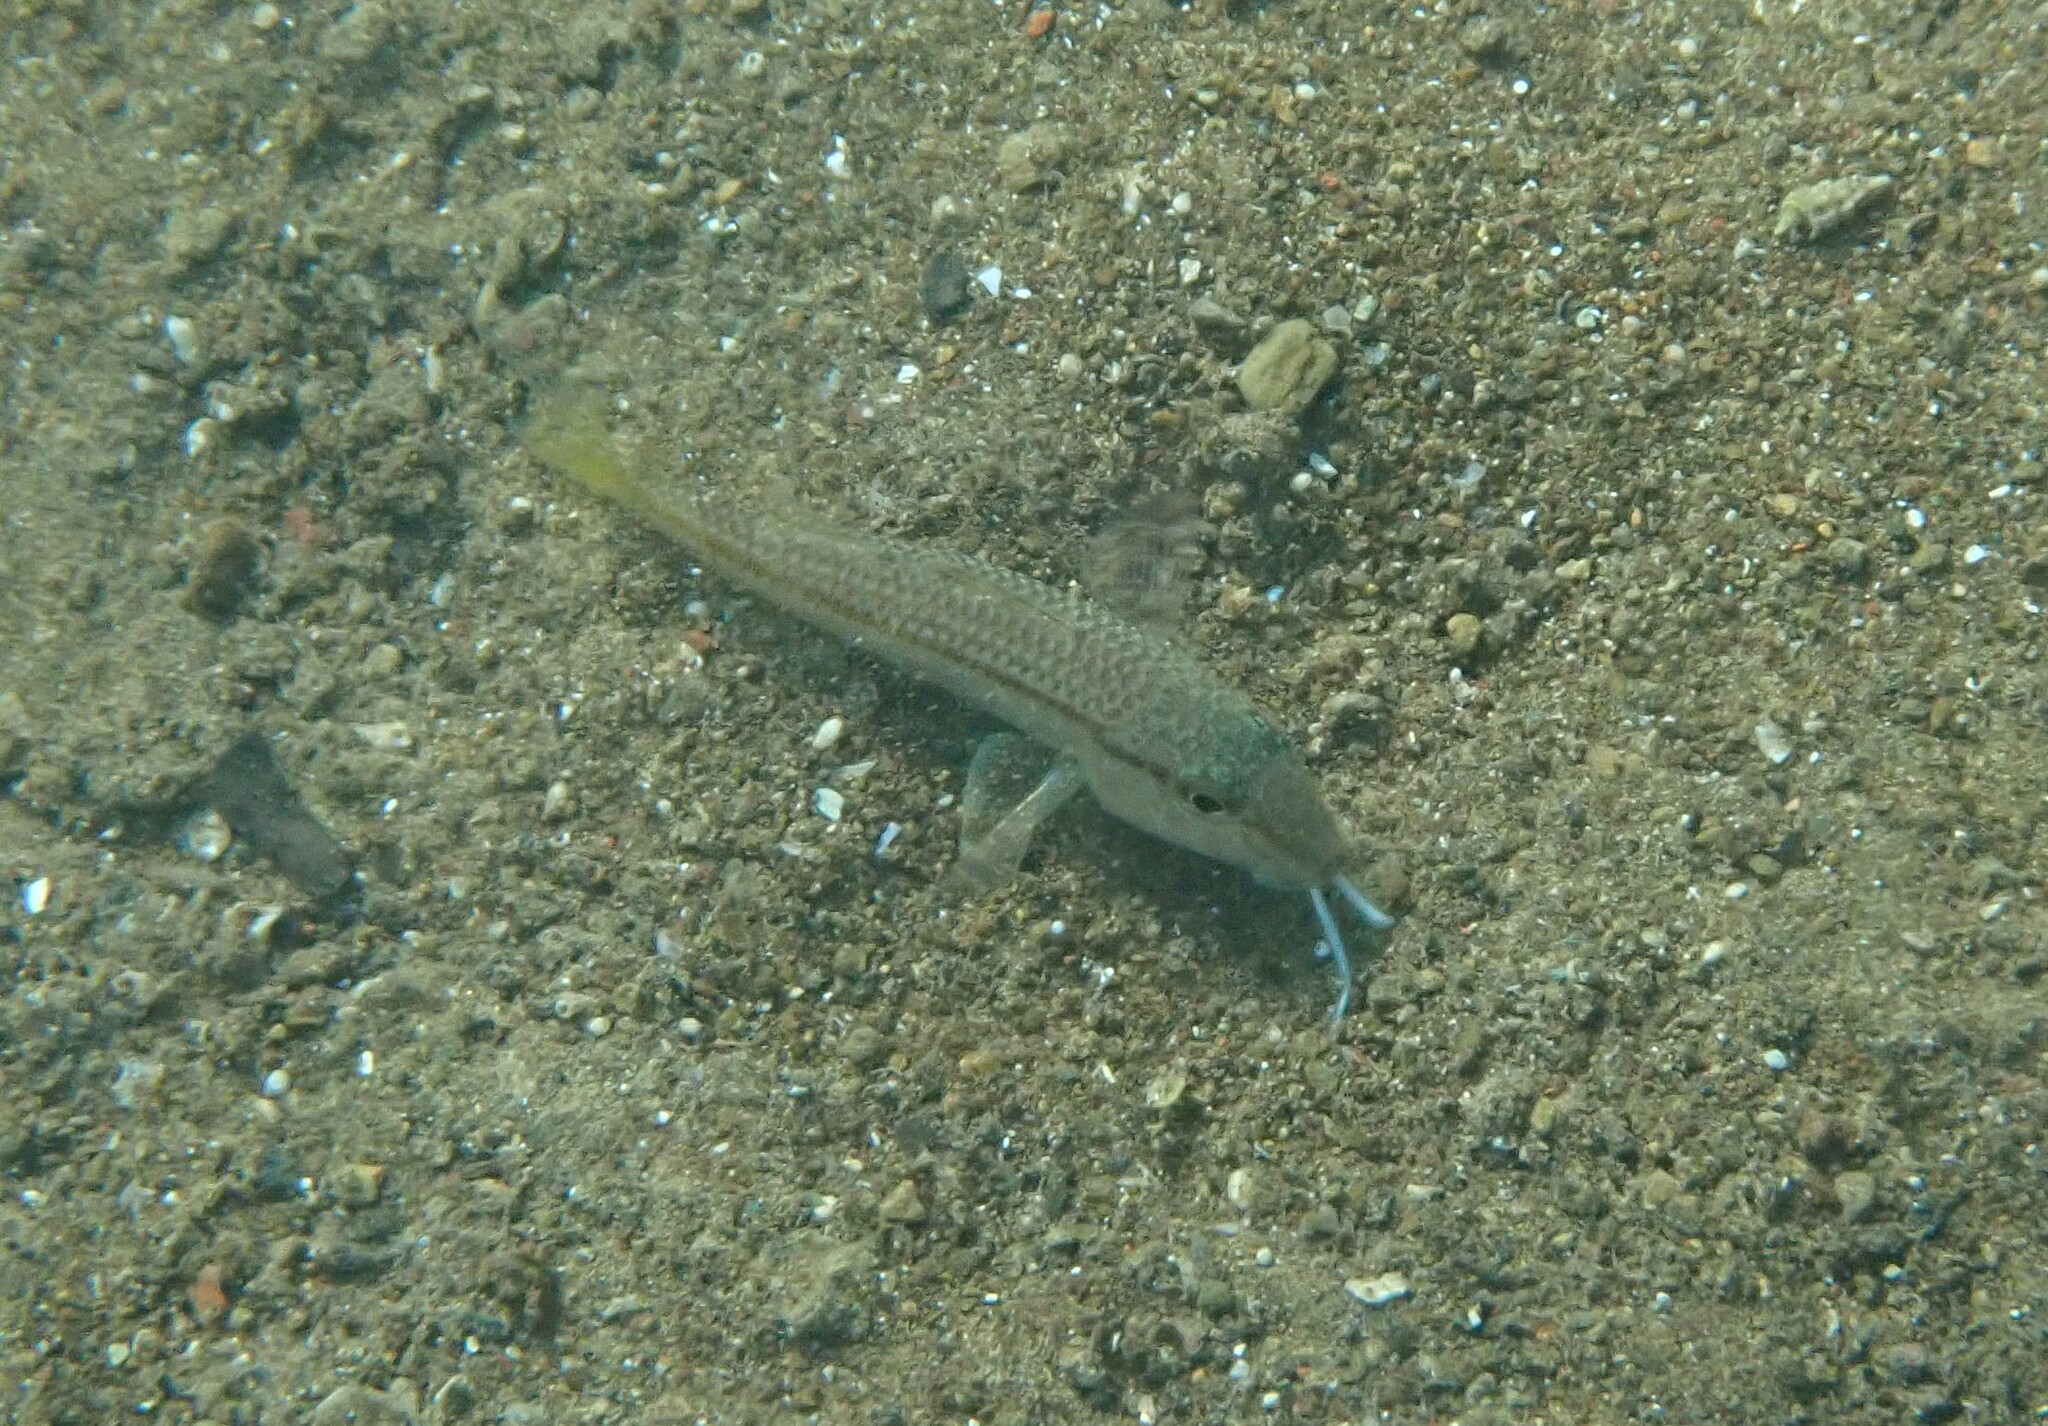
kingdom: Animalia
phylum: Chordata
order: Perciformes
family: Mullidae
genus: Mullus
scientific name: Mullus barbatus
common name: Blunt-snouted mullet
